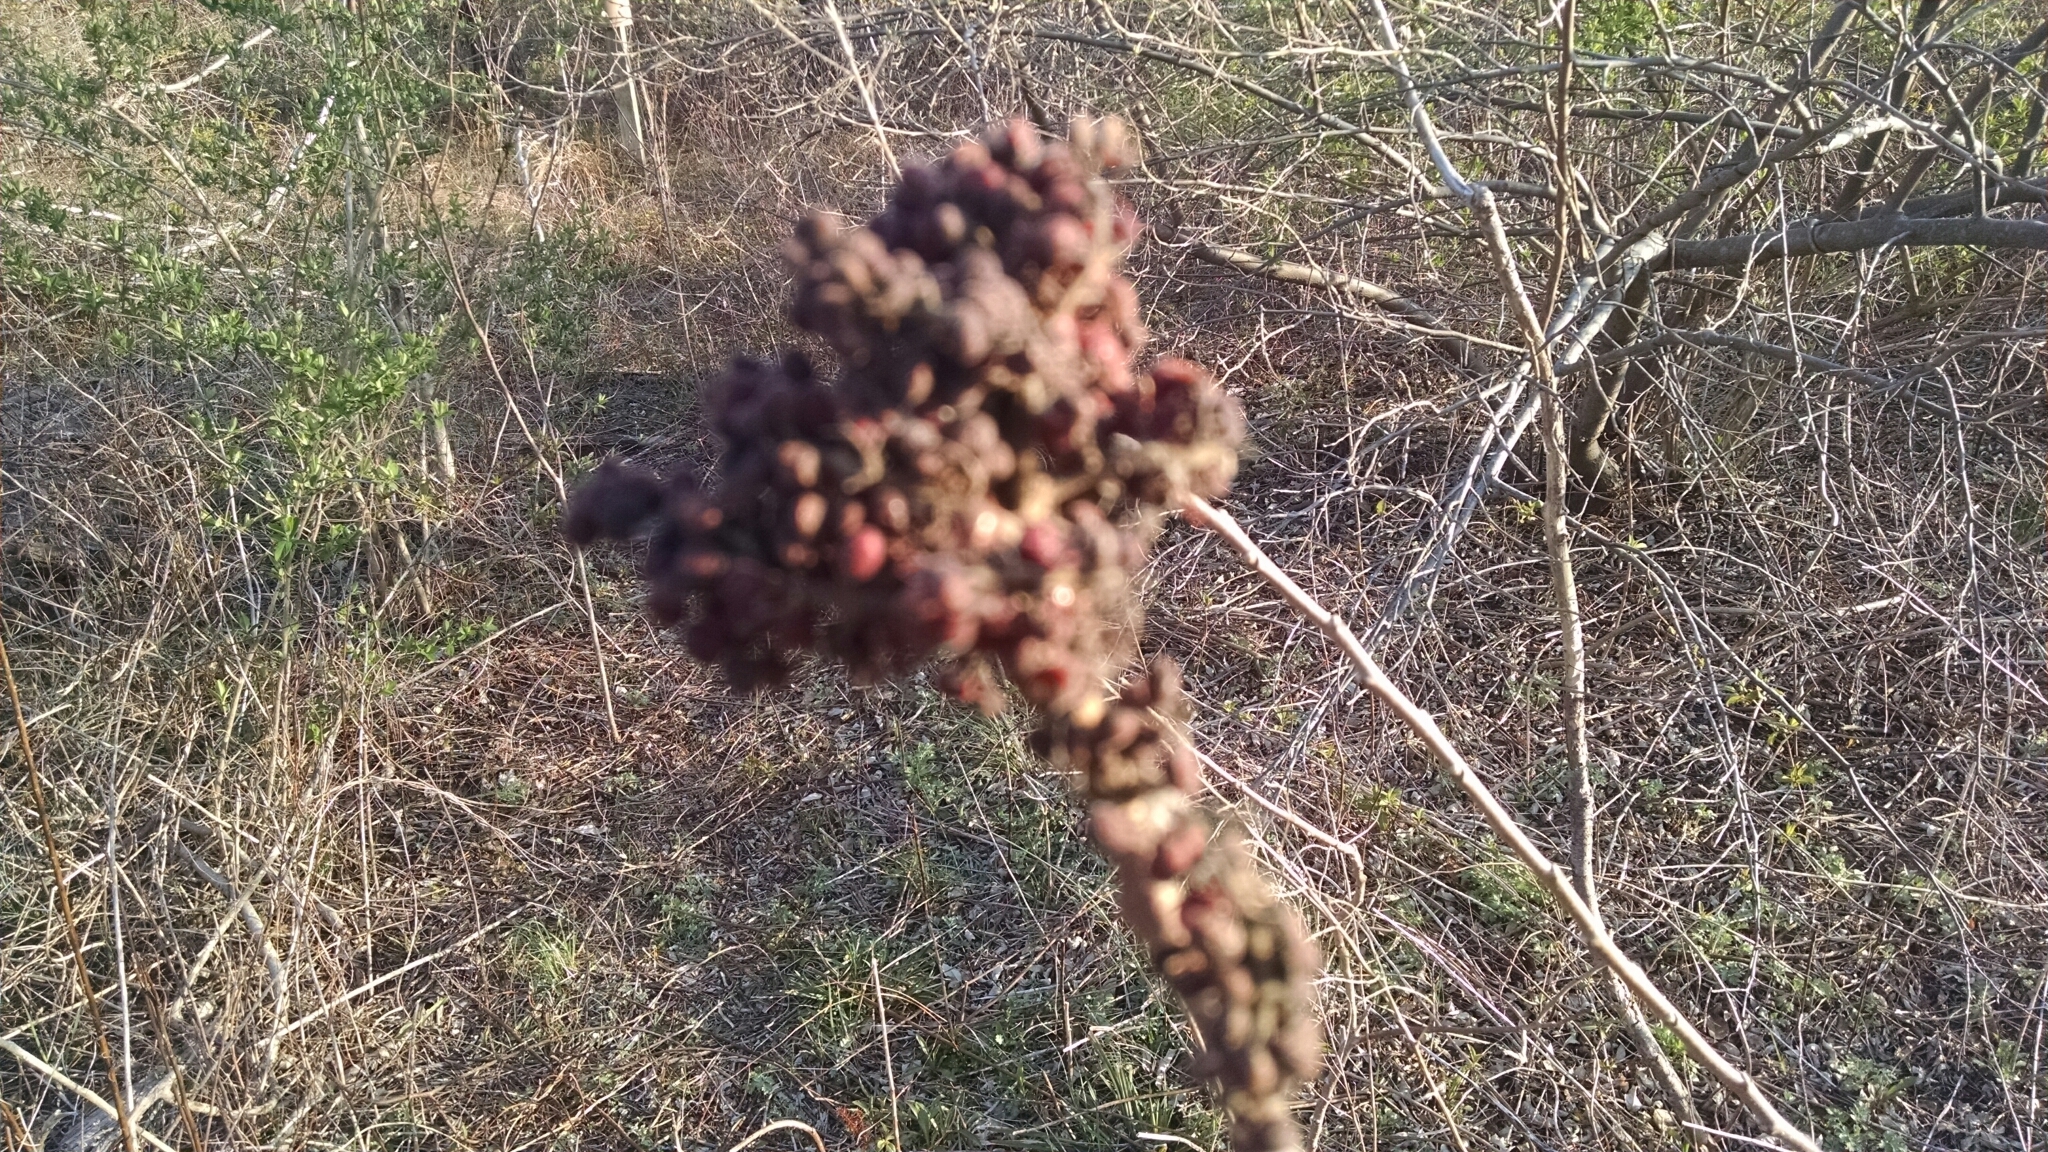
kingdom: Plantae
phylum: Tracheophyta
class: Magnoliopsida
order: Sapindales
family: Anacardiaceae
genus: Rhus
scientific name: Rhus
